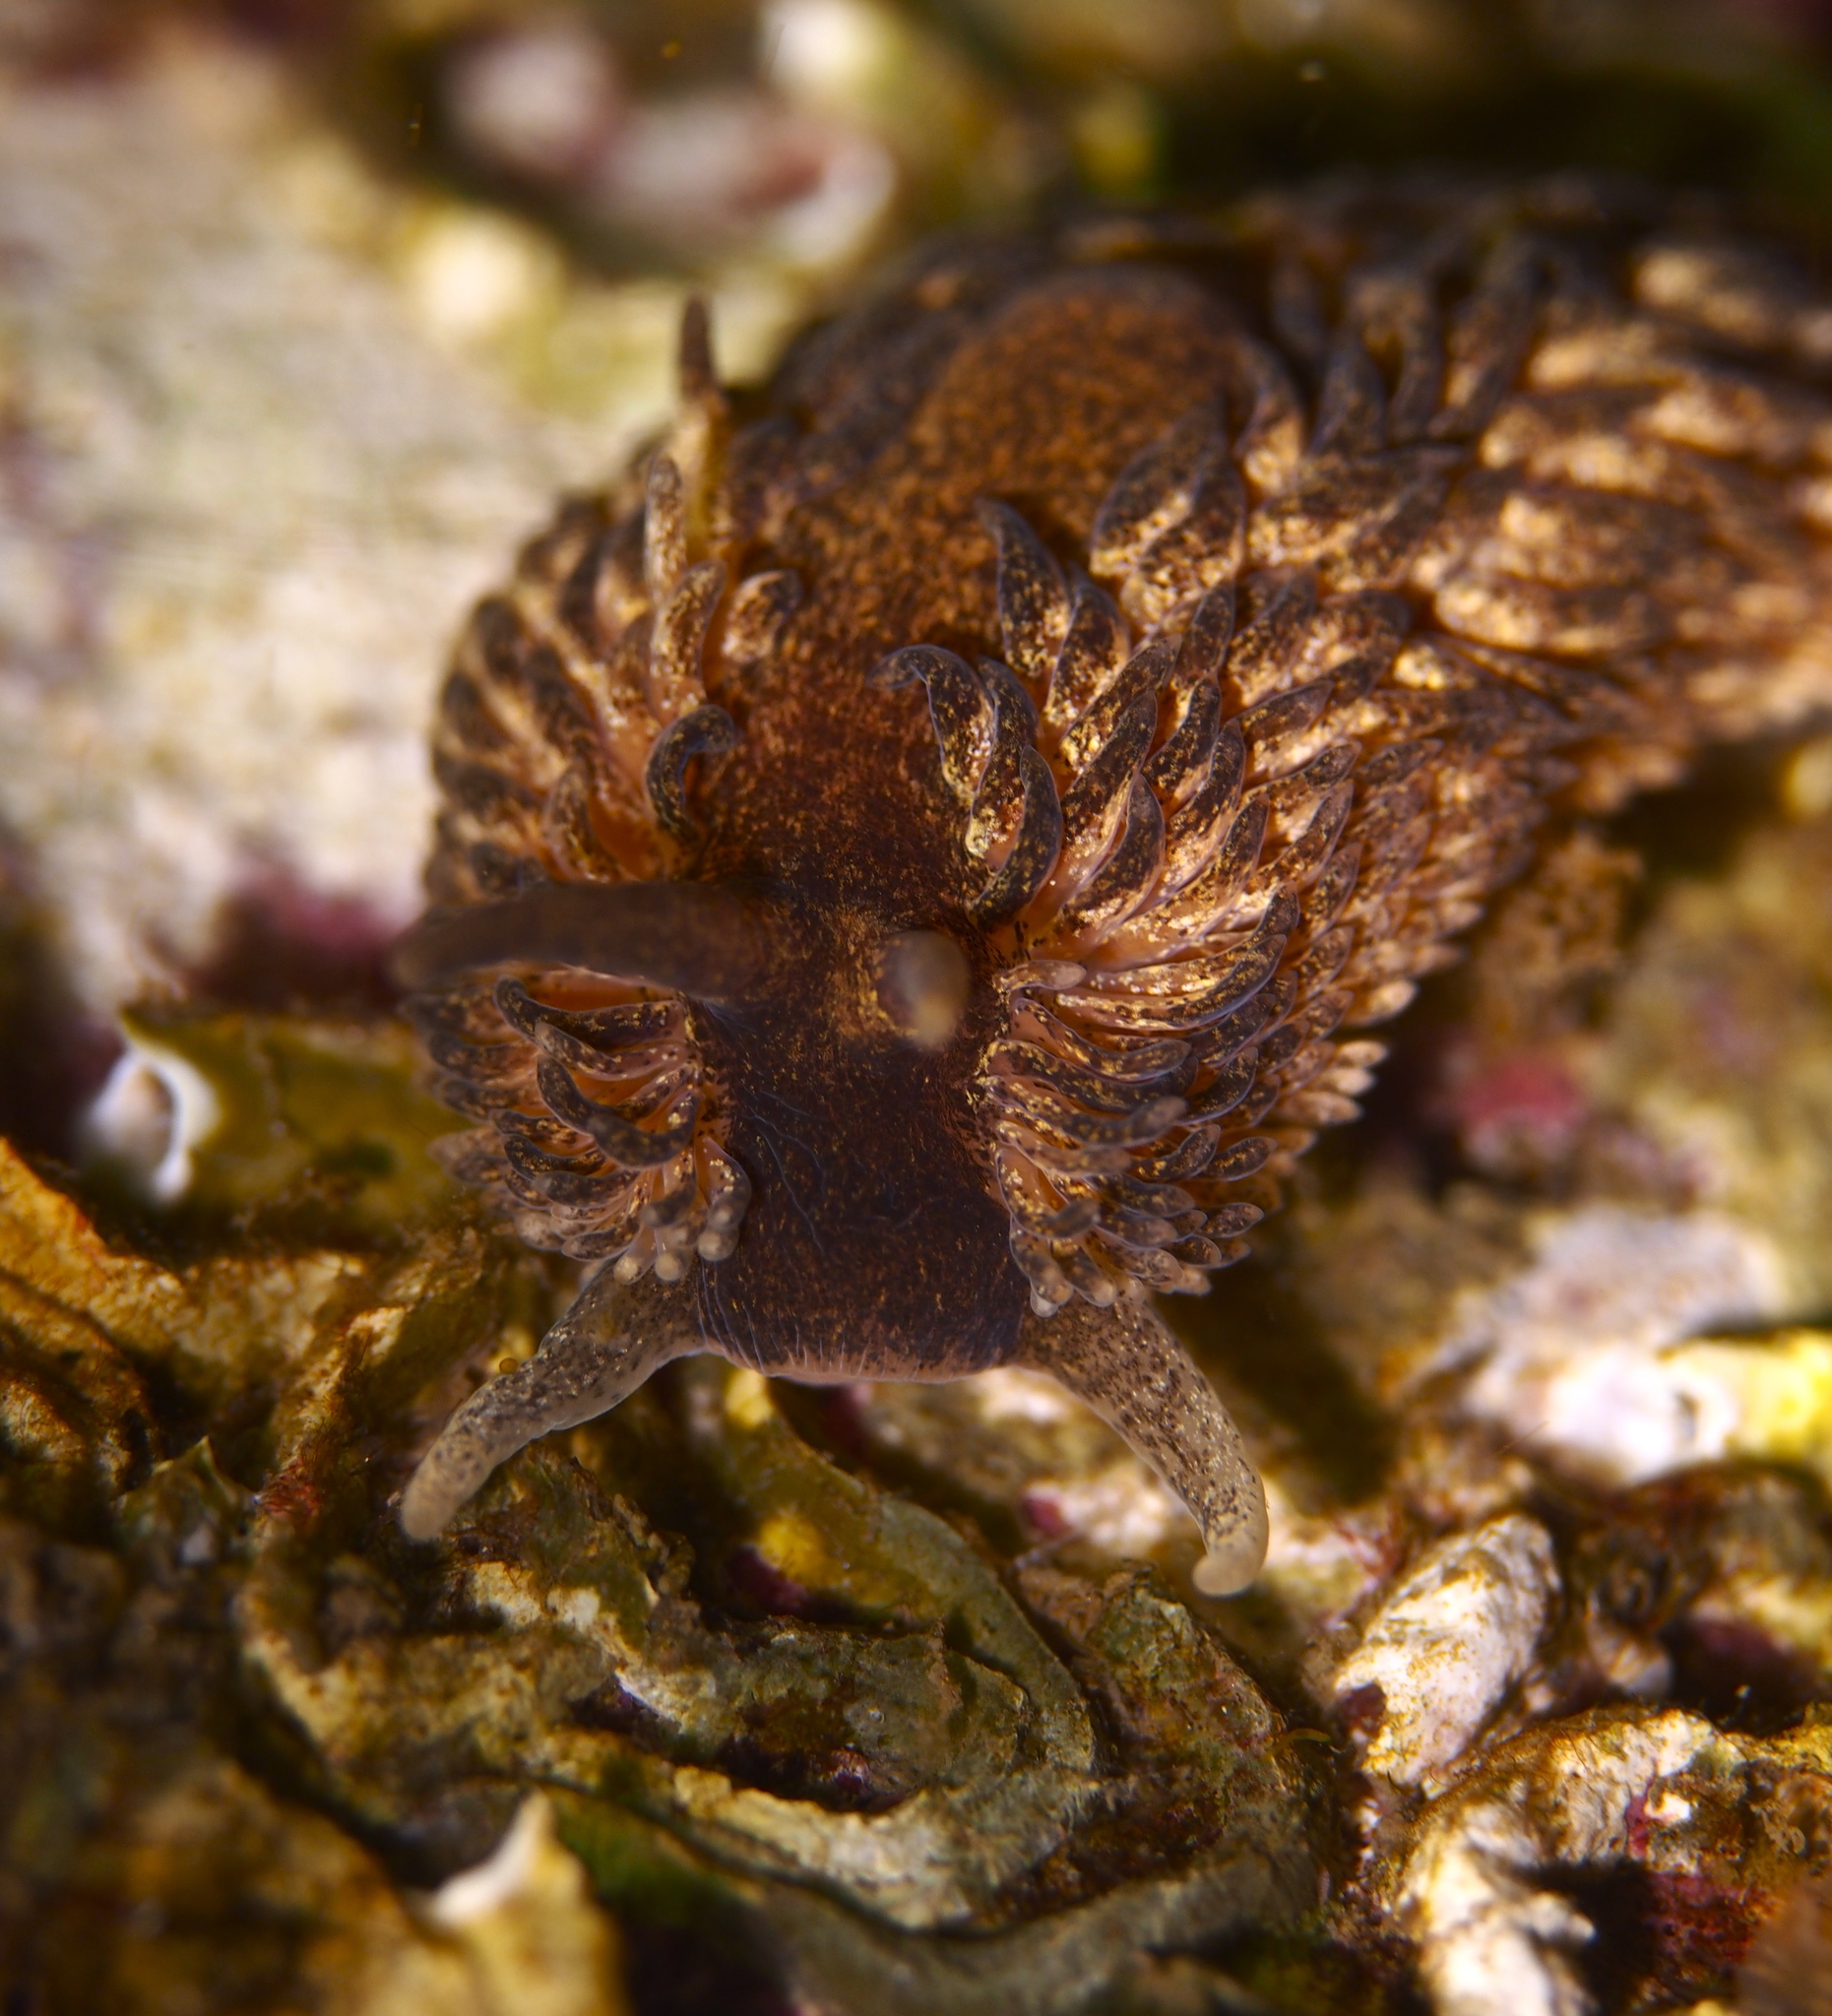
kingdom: Animalia
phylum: Mollusca
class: Gastropoda
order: Nudibranchia
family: Aeolidiidae
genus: Aeolidia
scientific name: Aeolidia papillosa
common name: Common grey sea slug
